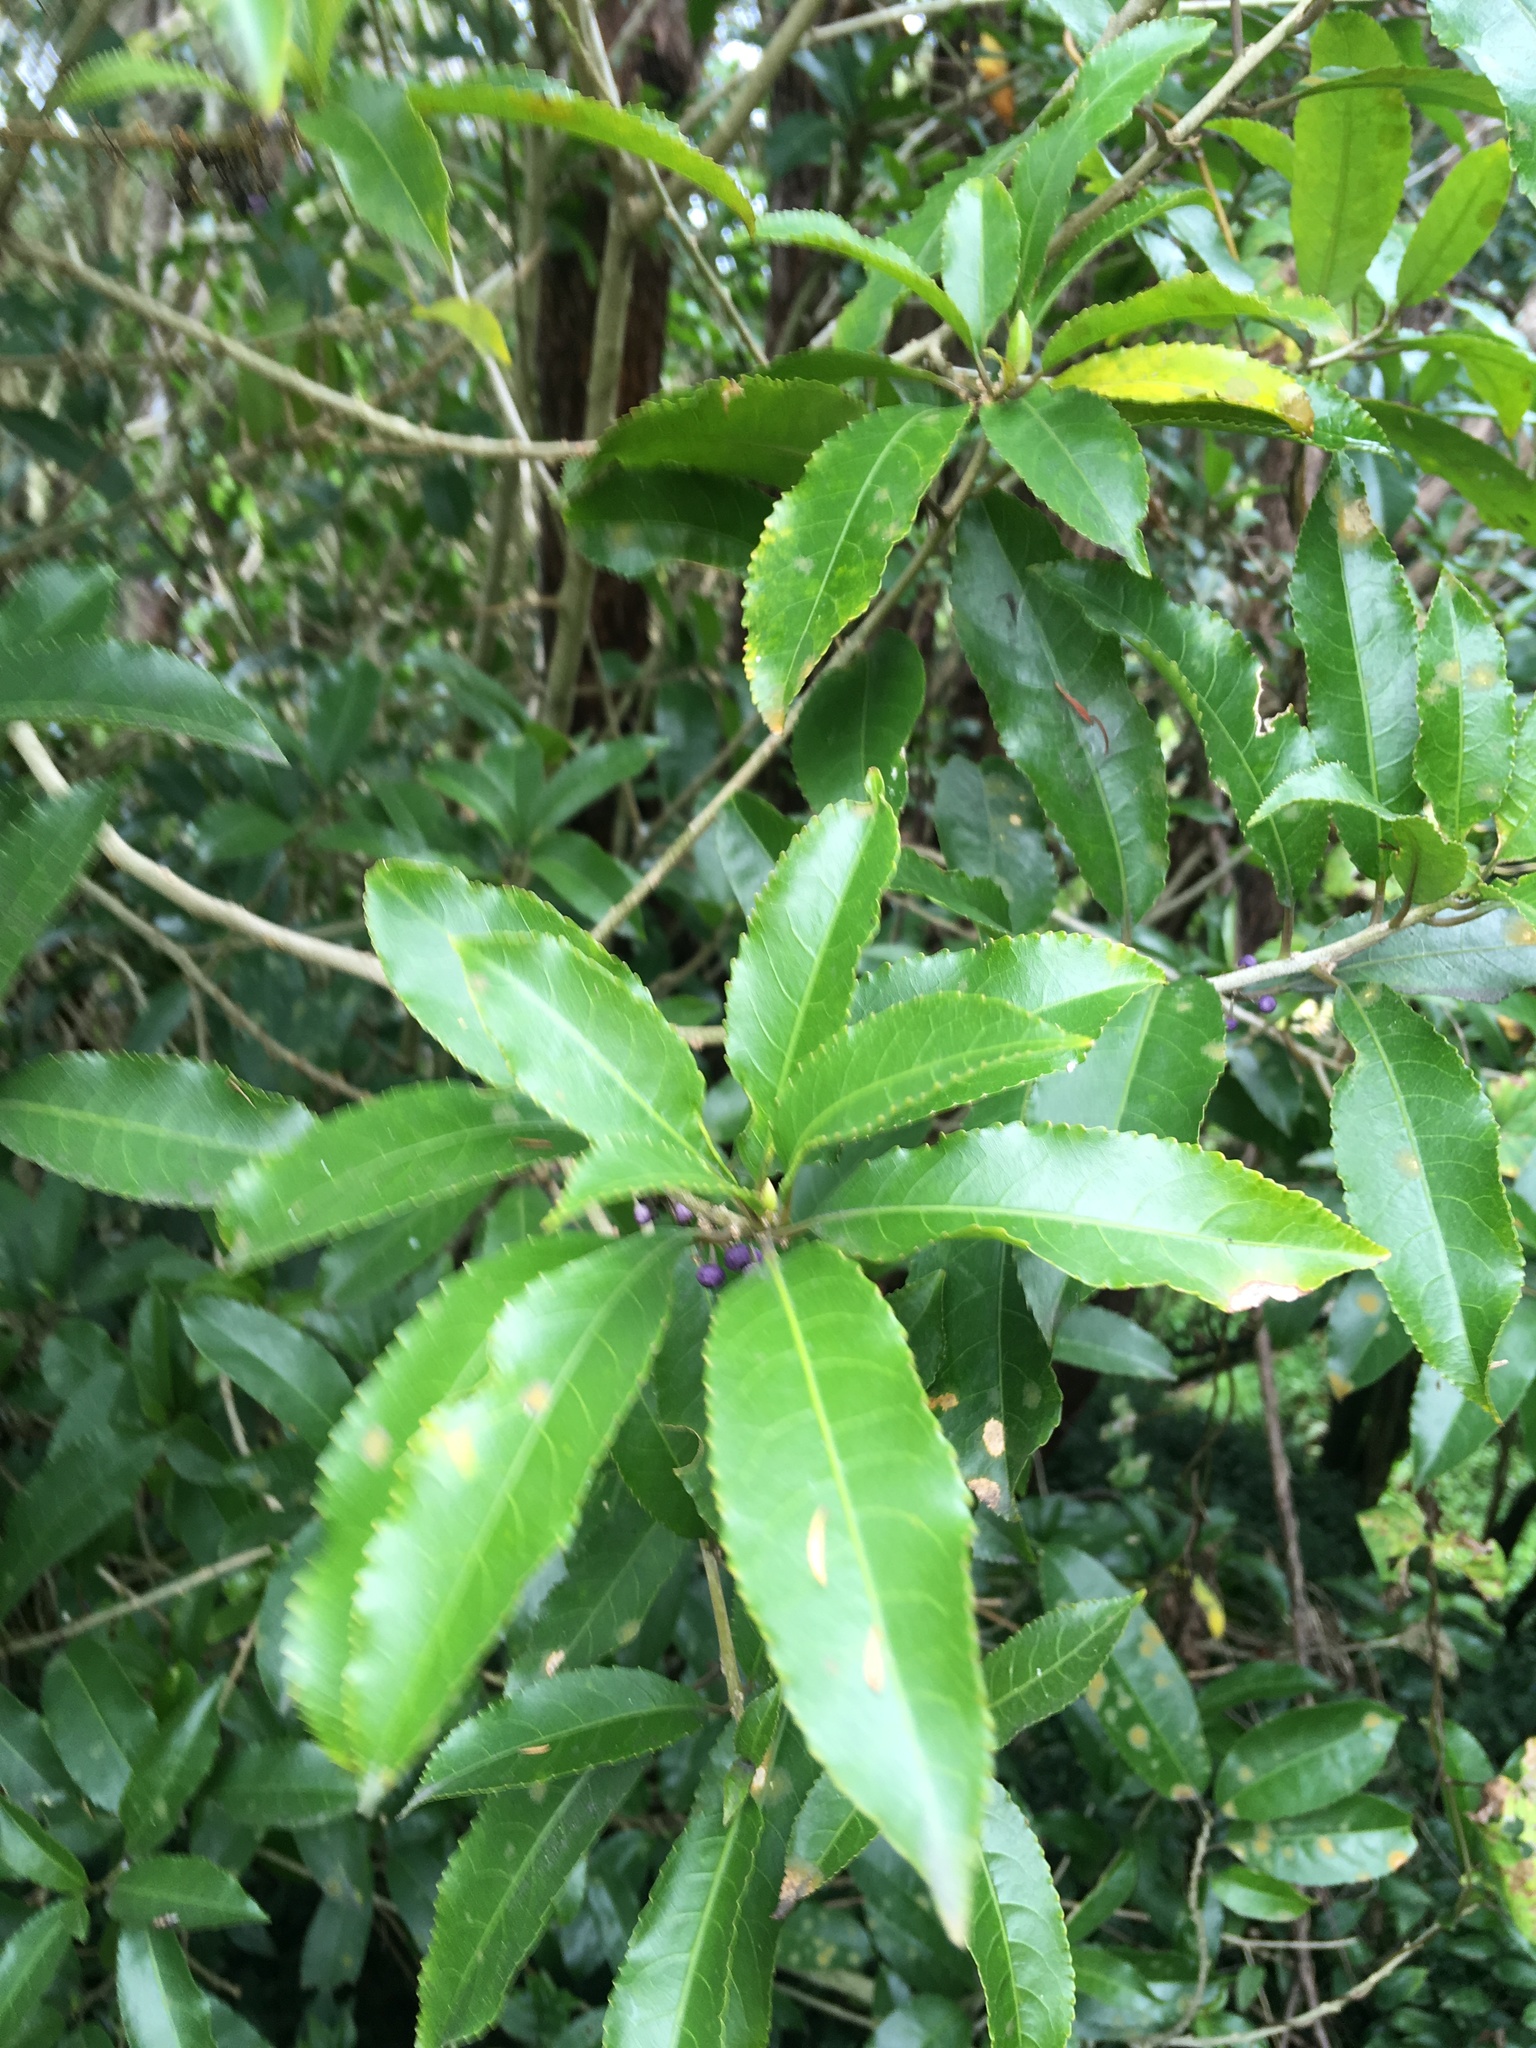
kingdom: Plantae
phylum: Tracheophyta
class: Magnoliopsida
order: Malpighiales
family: Violaceae
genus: Melicytus
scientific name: Melicytus ramiflorus
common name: Mahoe
